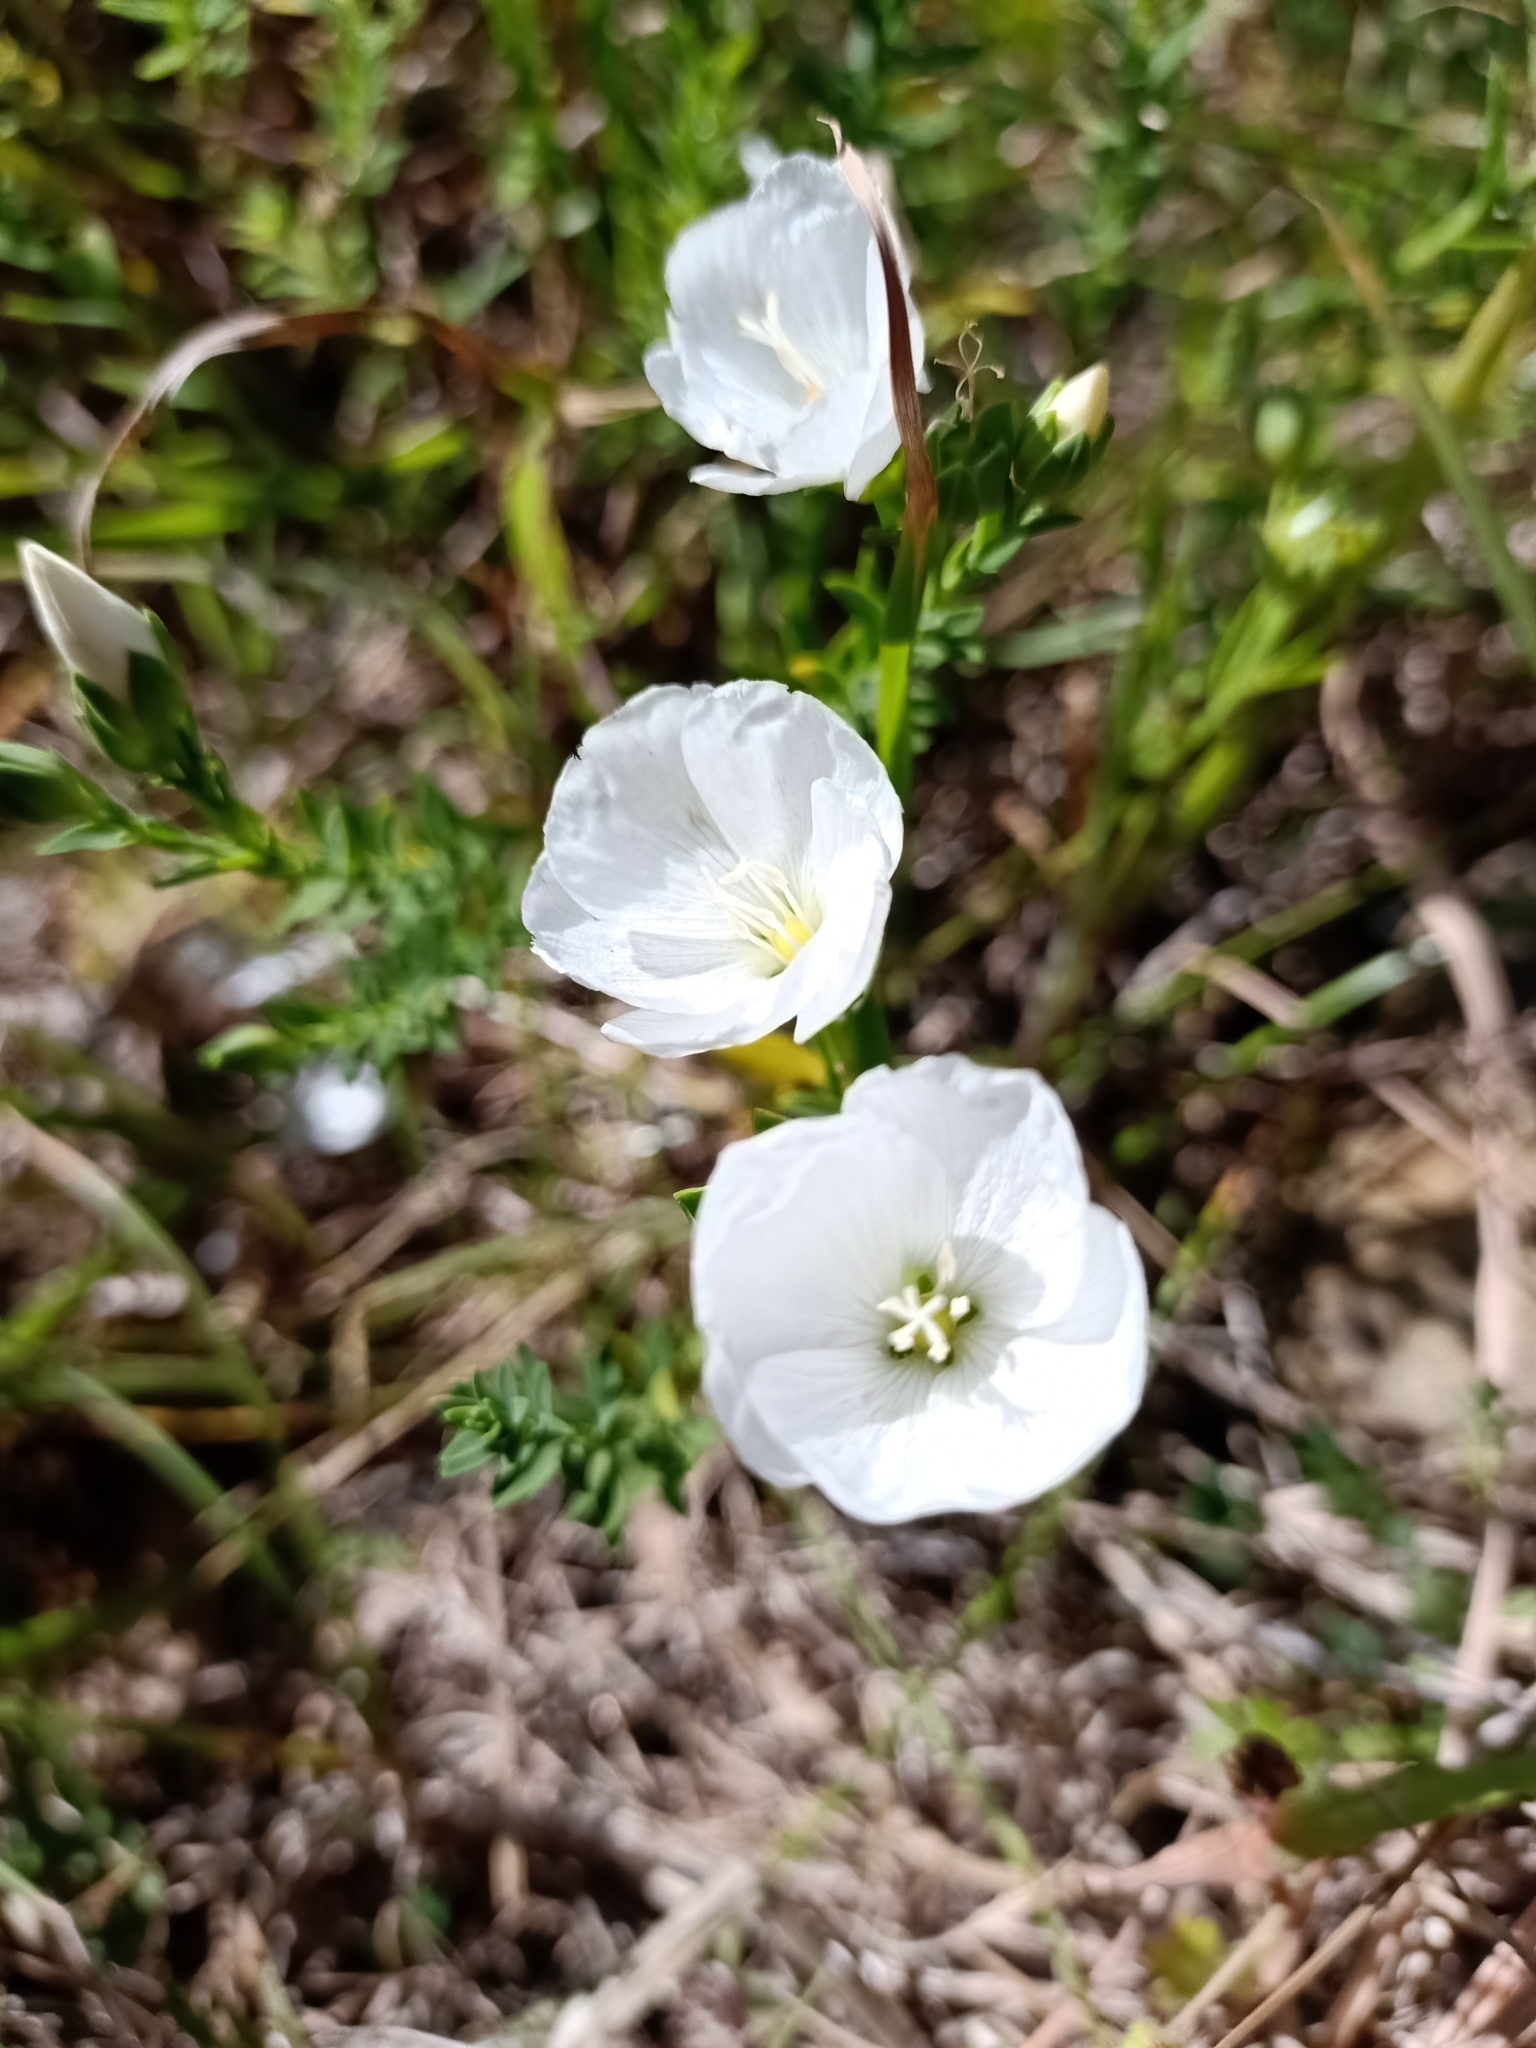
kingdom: Plantae
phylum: Tracheophyta
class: Magnoliopsida
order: Malpighiales
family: Linaceae
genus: Linum
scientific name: Linum monogynum
